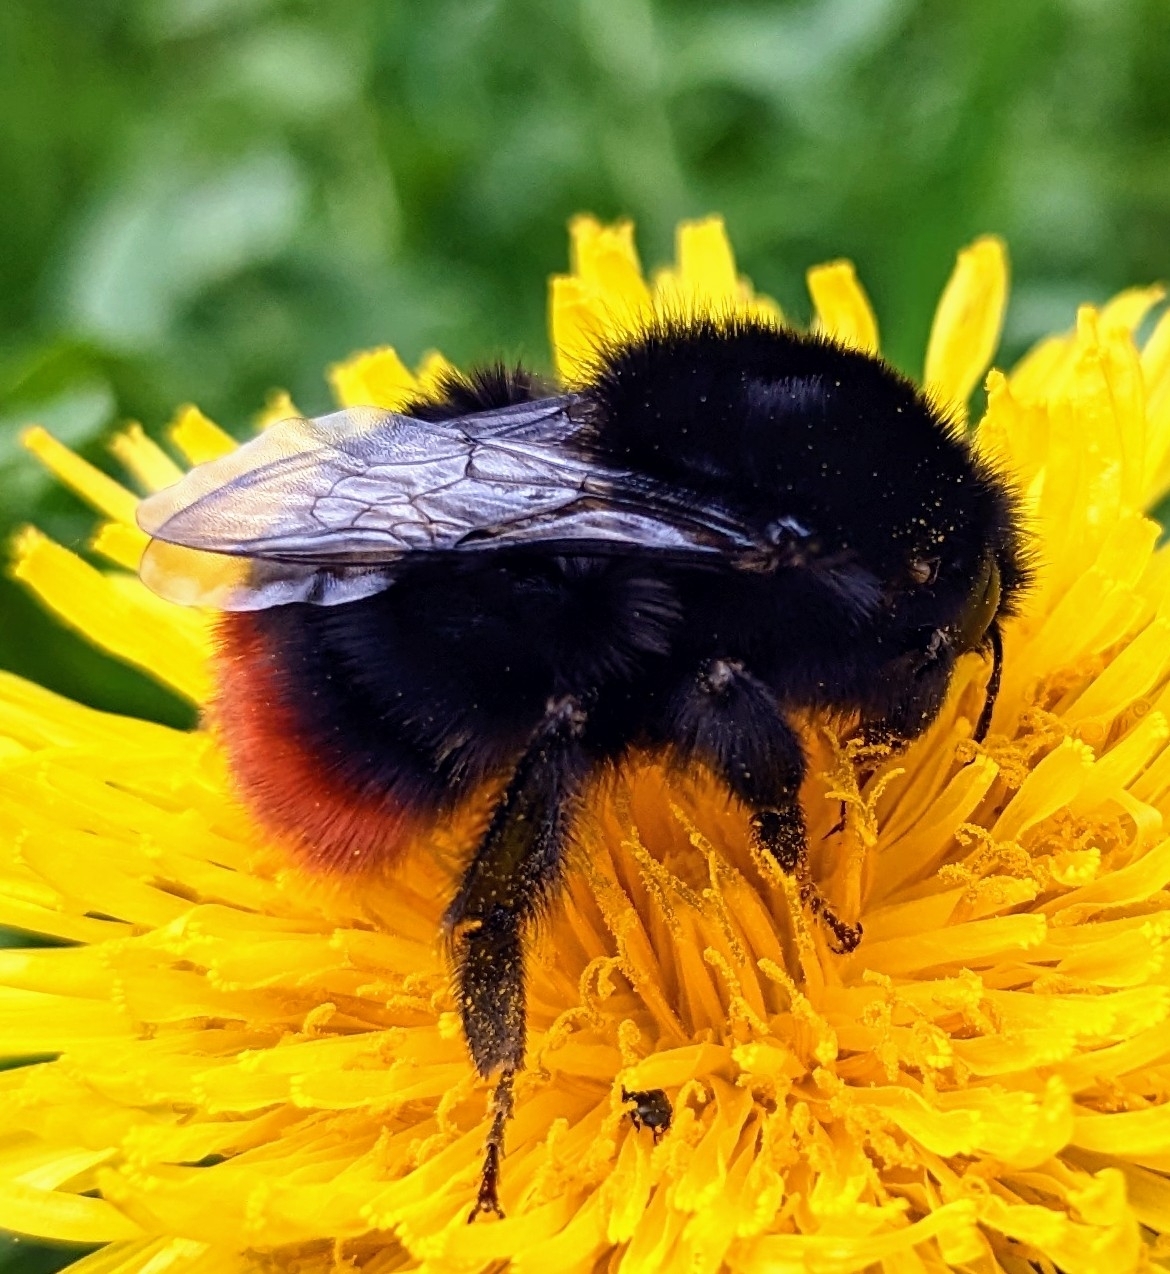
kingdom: Animalia
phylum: Arthropoda
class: Insecta
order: Hymenoptera
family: Apidae
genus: Bombus
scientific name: Bombus lapidarius
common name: Large red-tailed humble-bee
